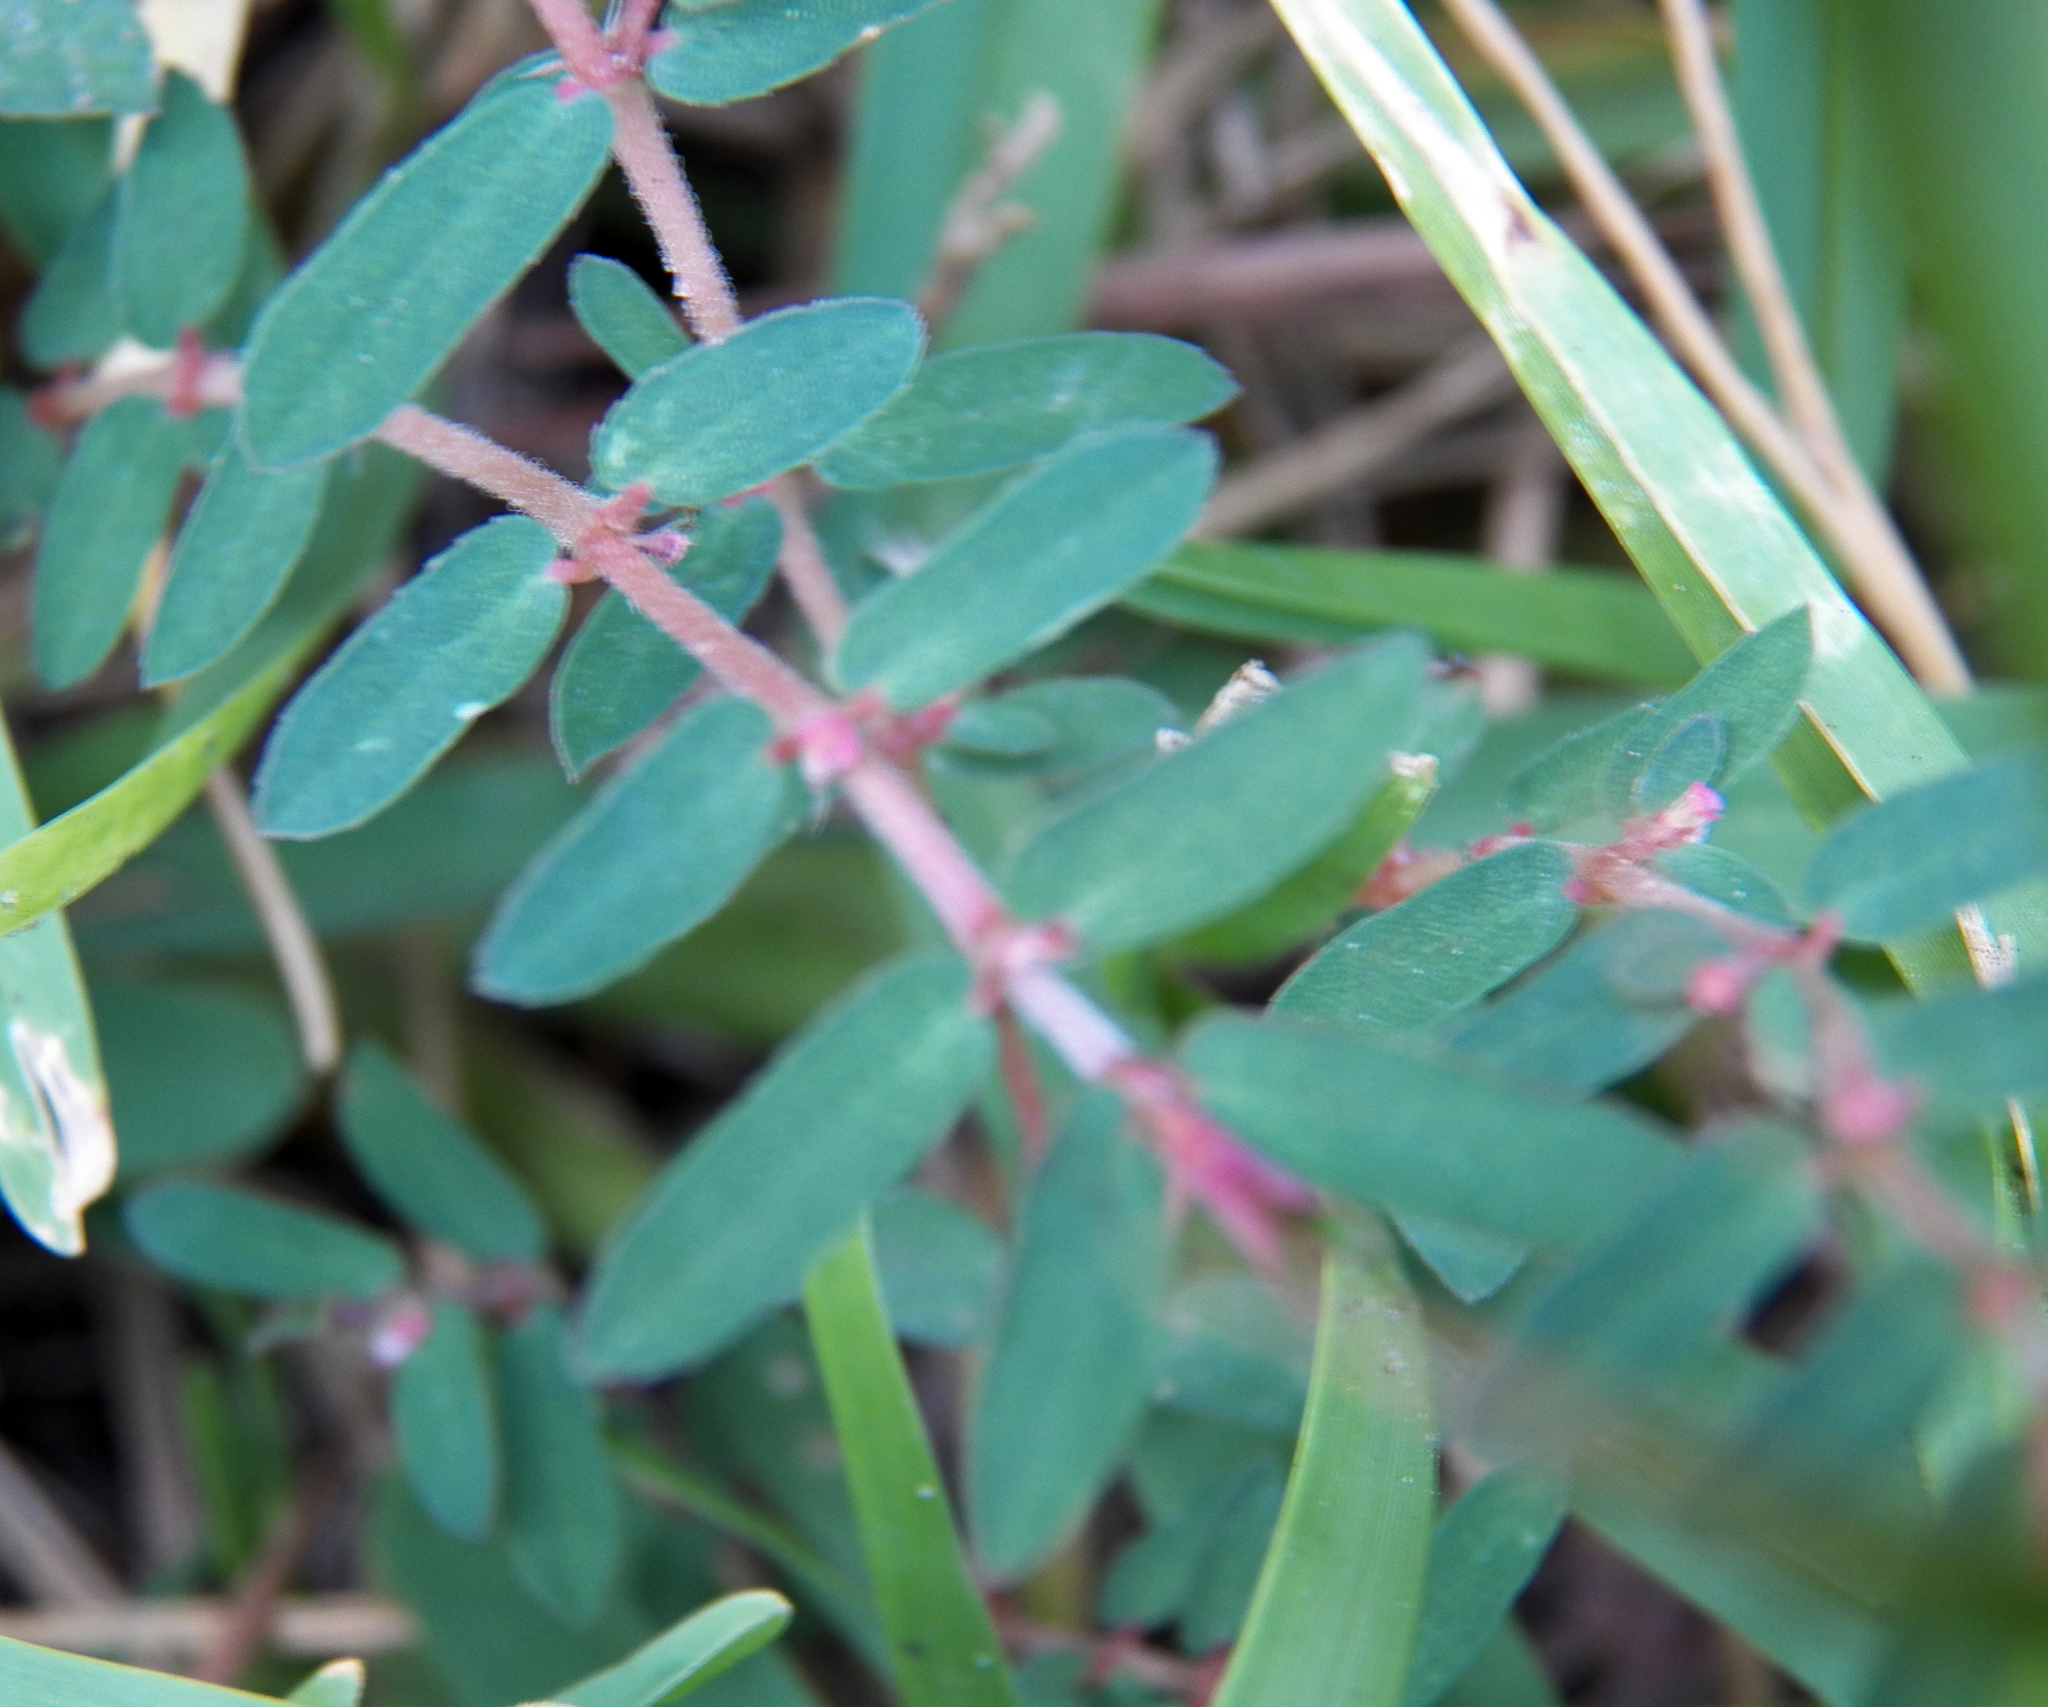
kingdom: Plantae
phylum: Tracheophyta
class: Magnoliopsida
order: Malpighiales
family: Euphorbiaceae
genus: Euphorbia
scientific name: Euphorbia maculata
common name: Spotted spurge
